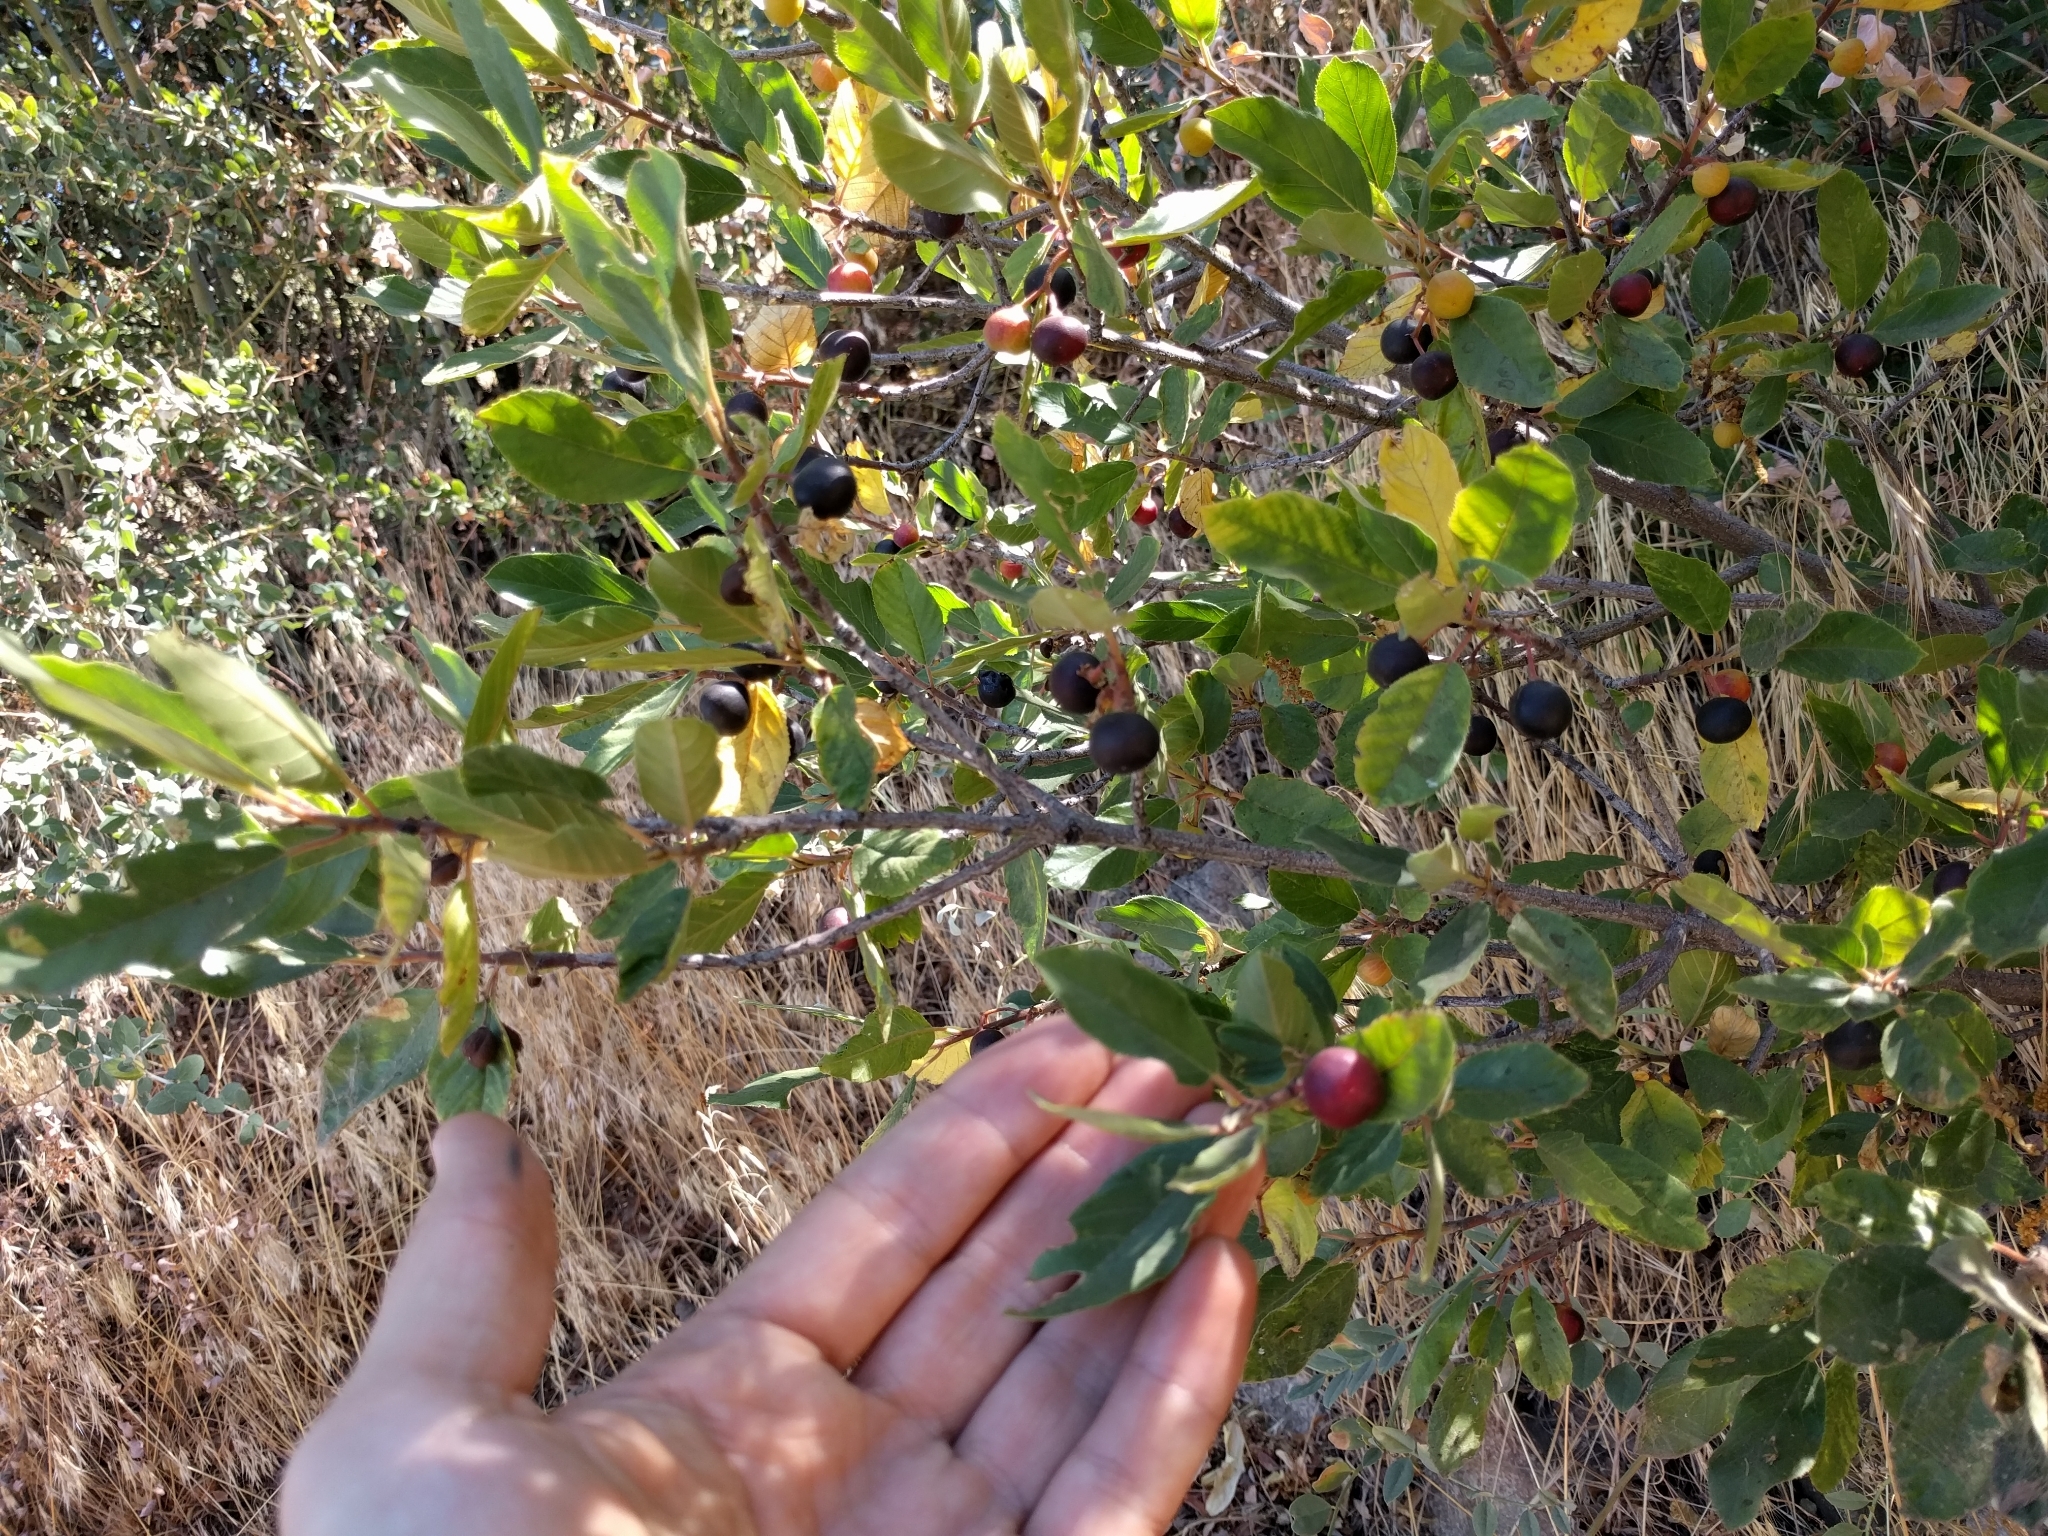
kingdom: Plantae
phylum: Tracheophyta
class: Magnoliopsida
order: Rosales
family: Rhamnaceae
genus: Frangula
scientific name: Frangula californica
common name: California buckthorn
